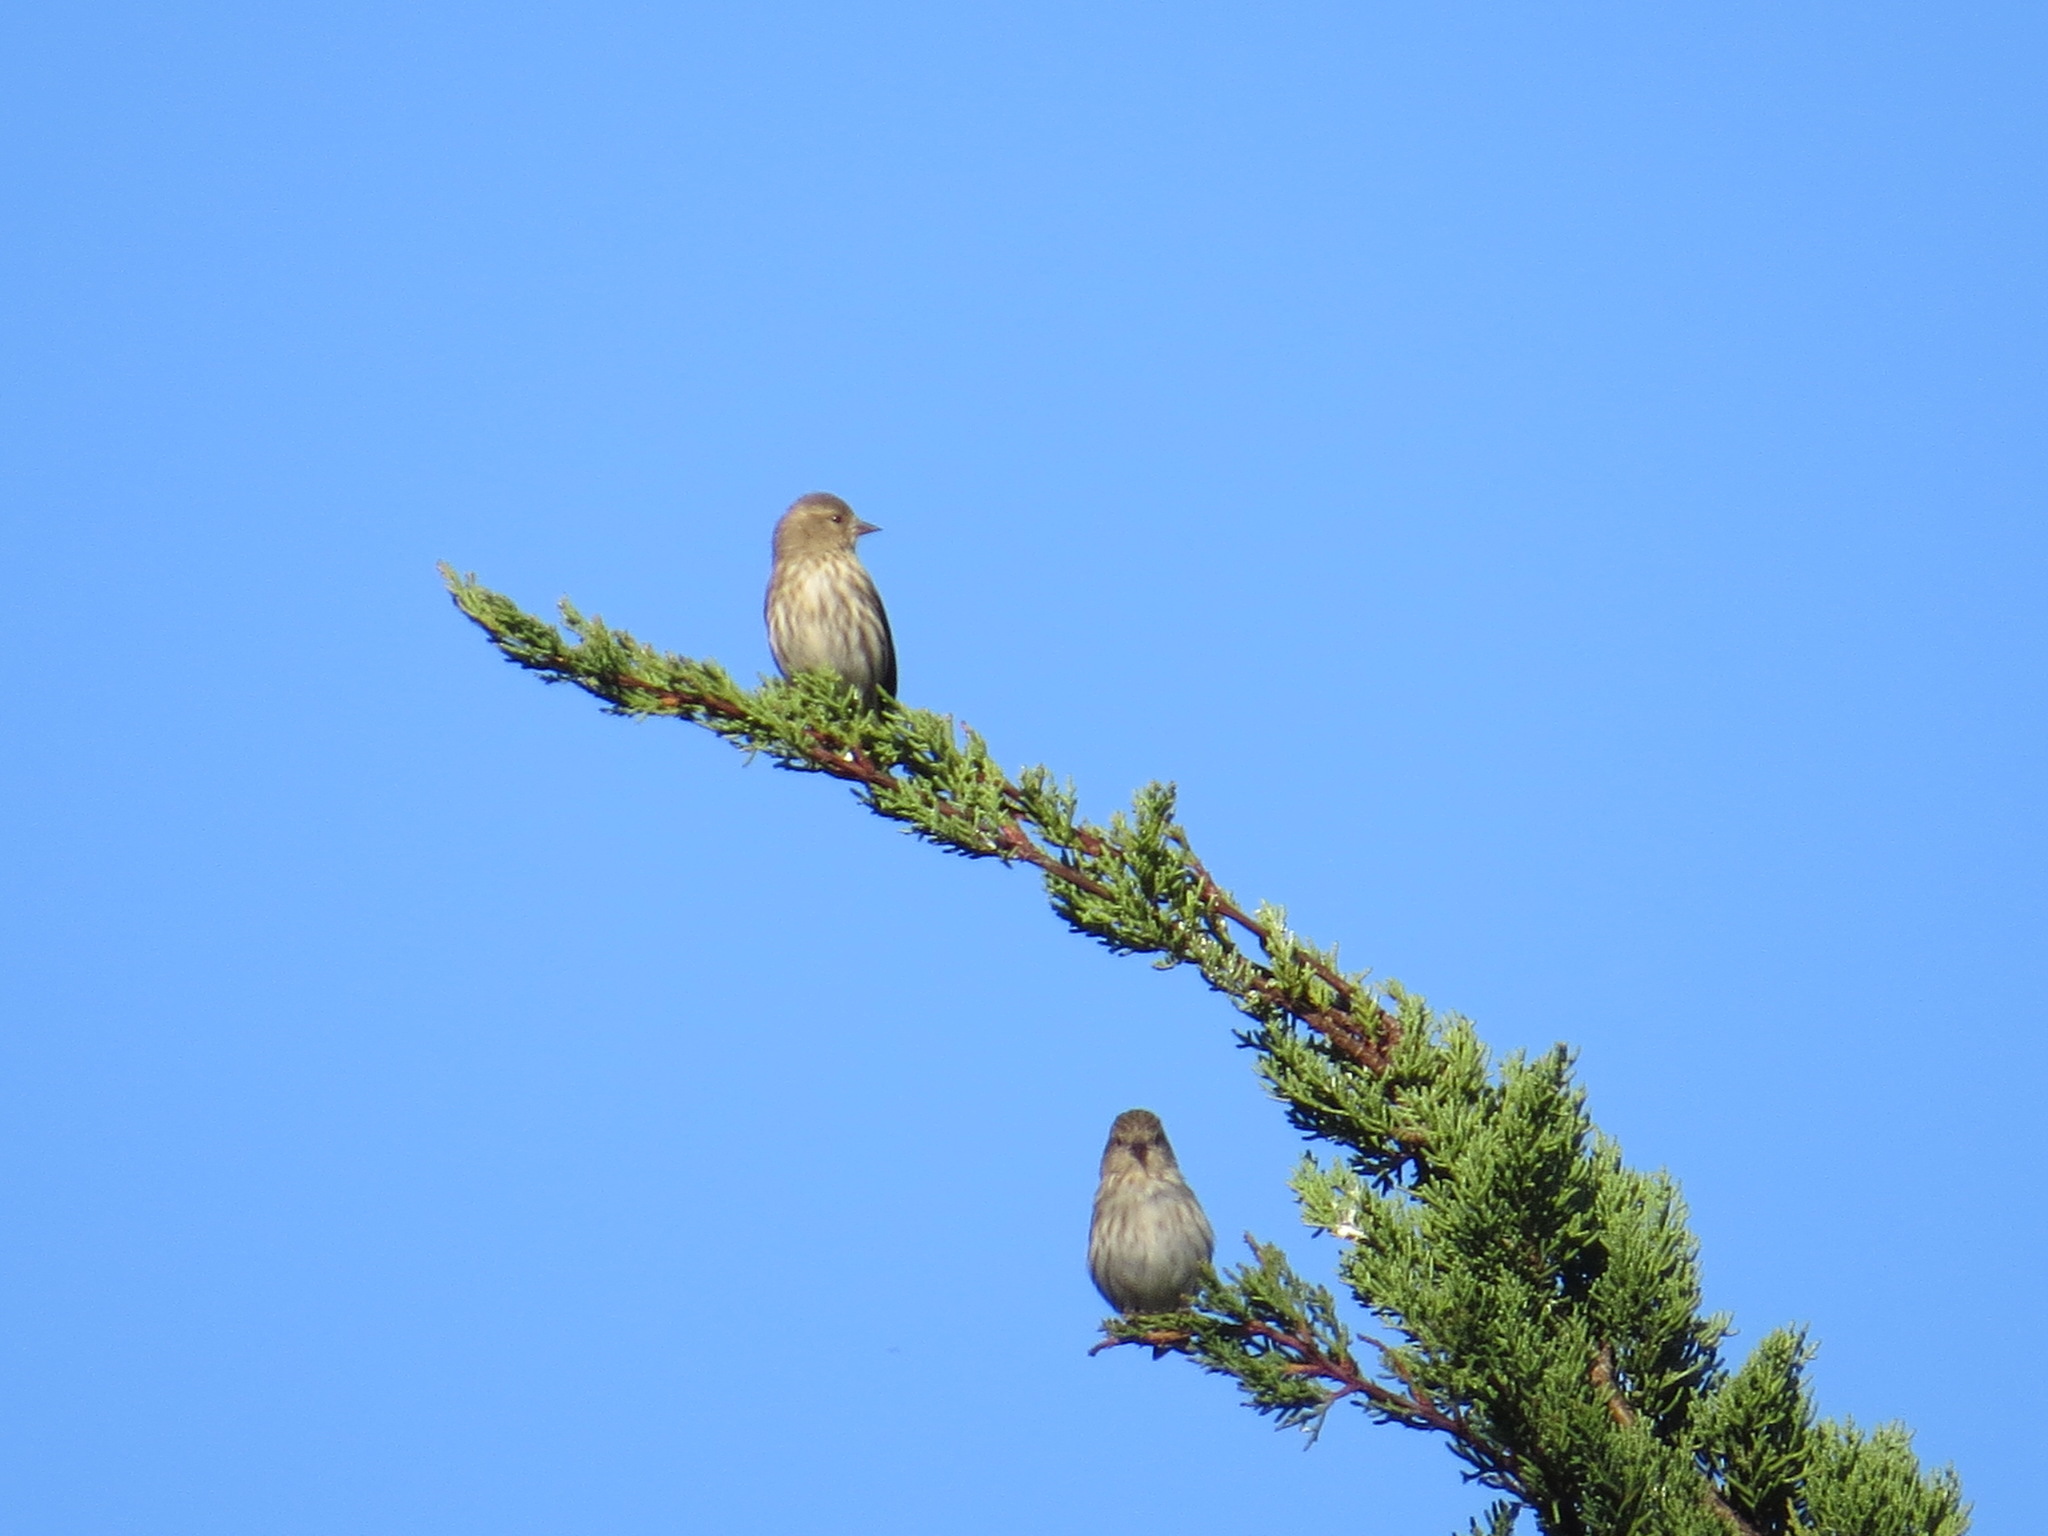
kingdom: Animalia
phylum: Chordata
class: Aves
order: Passeriformes
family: Fringillidae
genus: Spinus
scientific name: Spinus pinus
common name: Pine siskin
